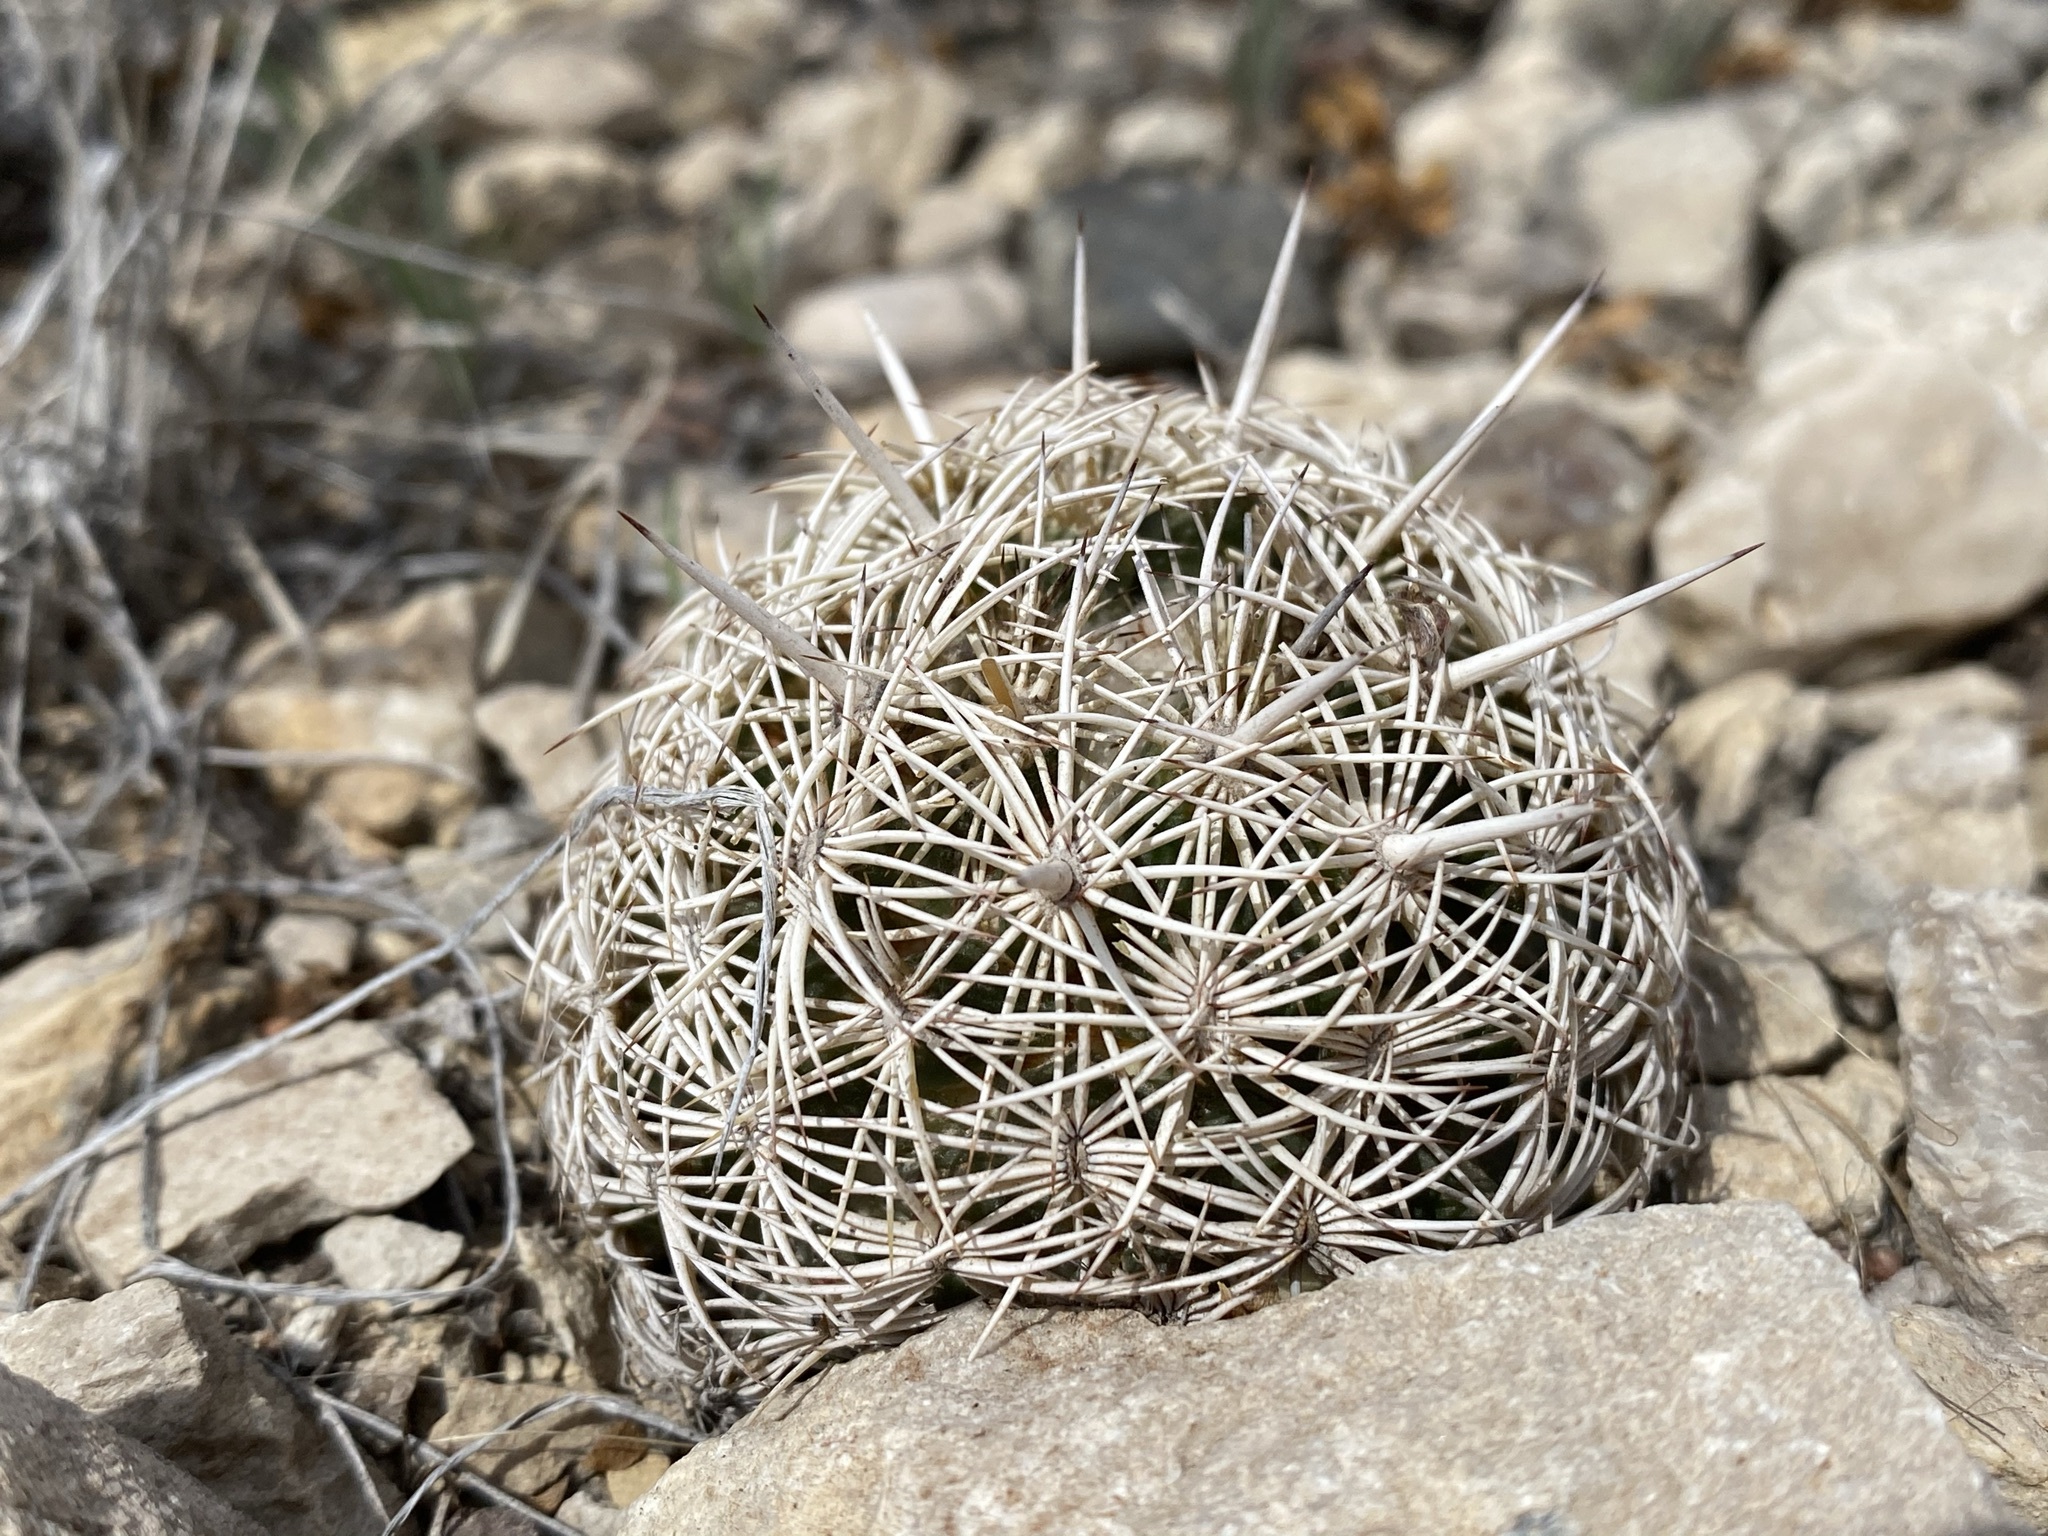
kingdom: Plantae
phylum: Tracheophyta
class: Magnoliopsida
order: Caryophyllales
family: Cactaceae
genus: Coryphantha
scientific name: Coryphantha echinus
